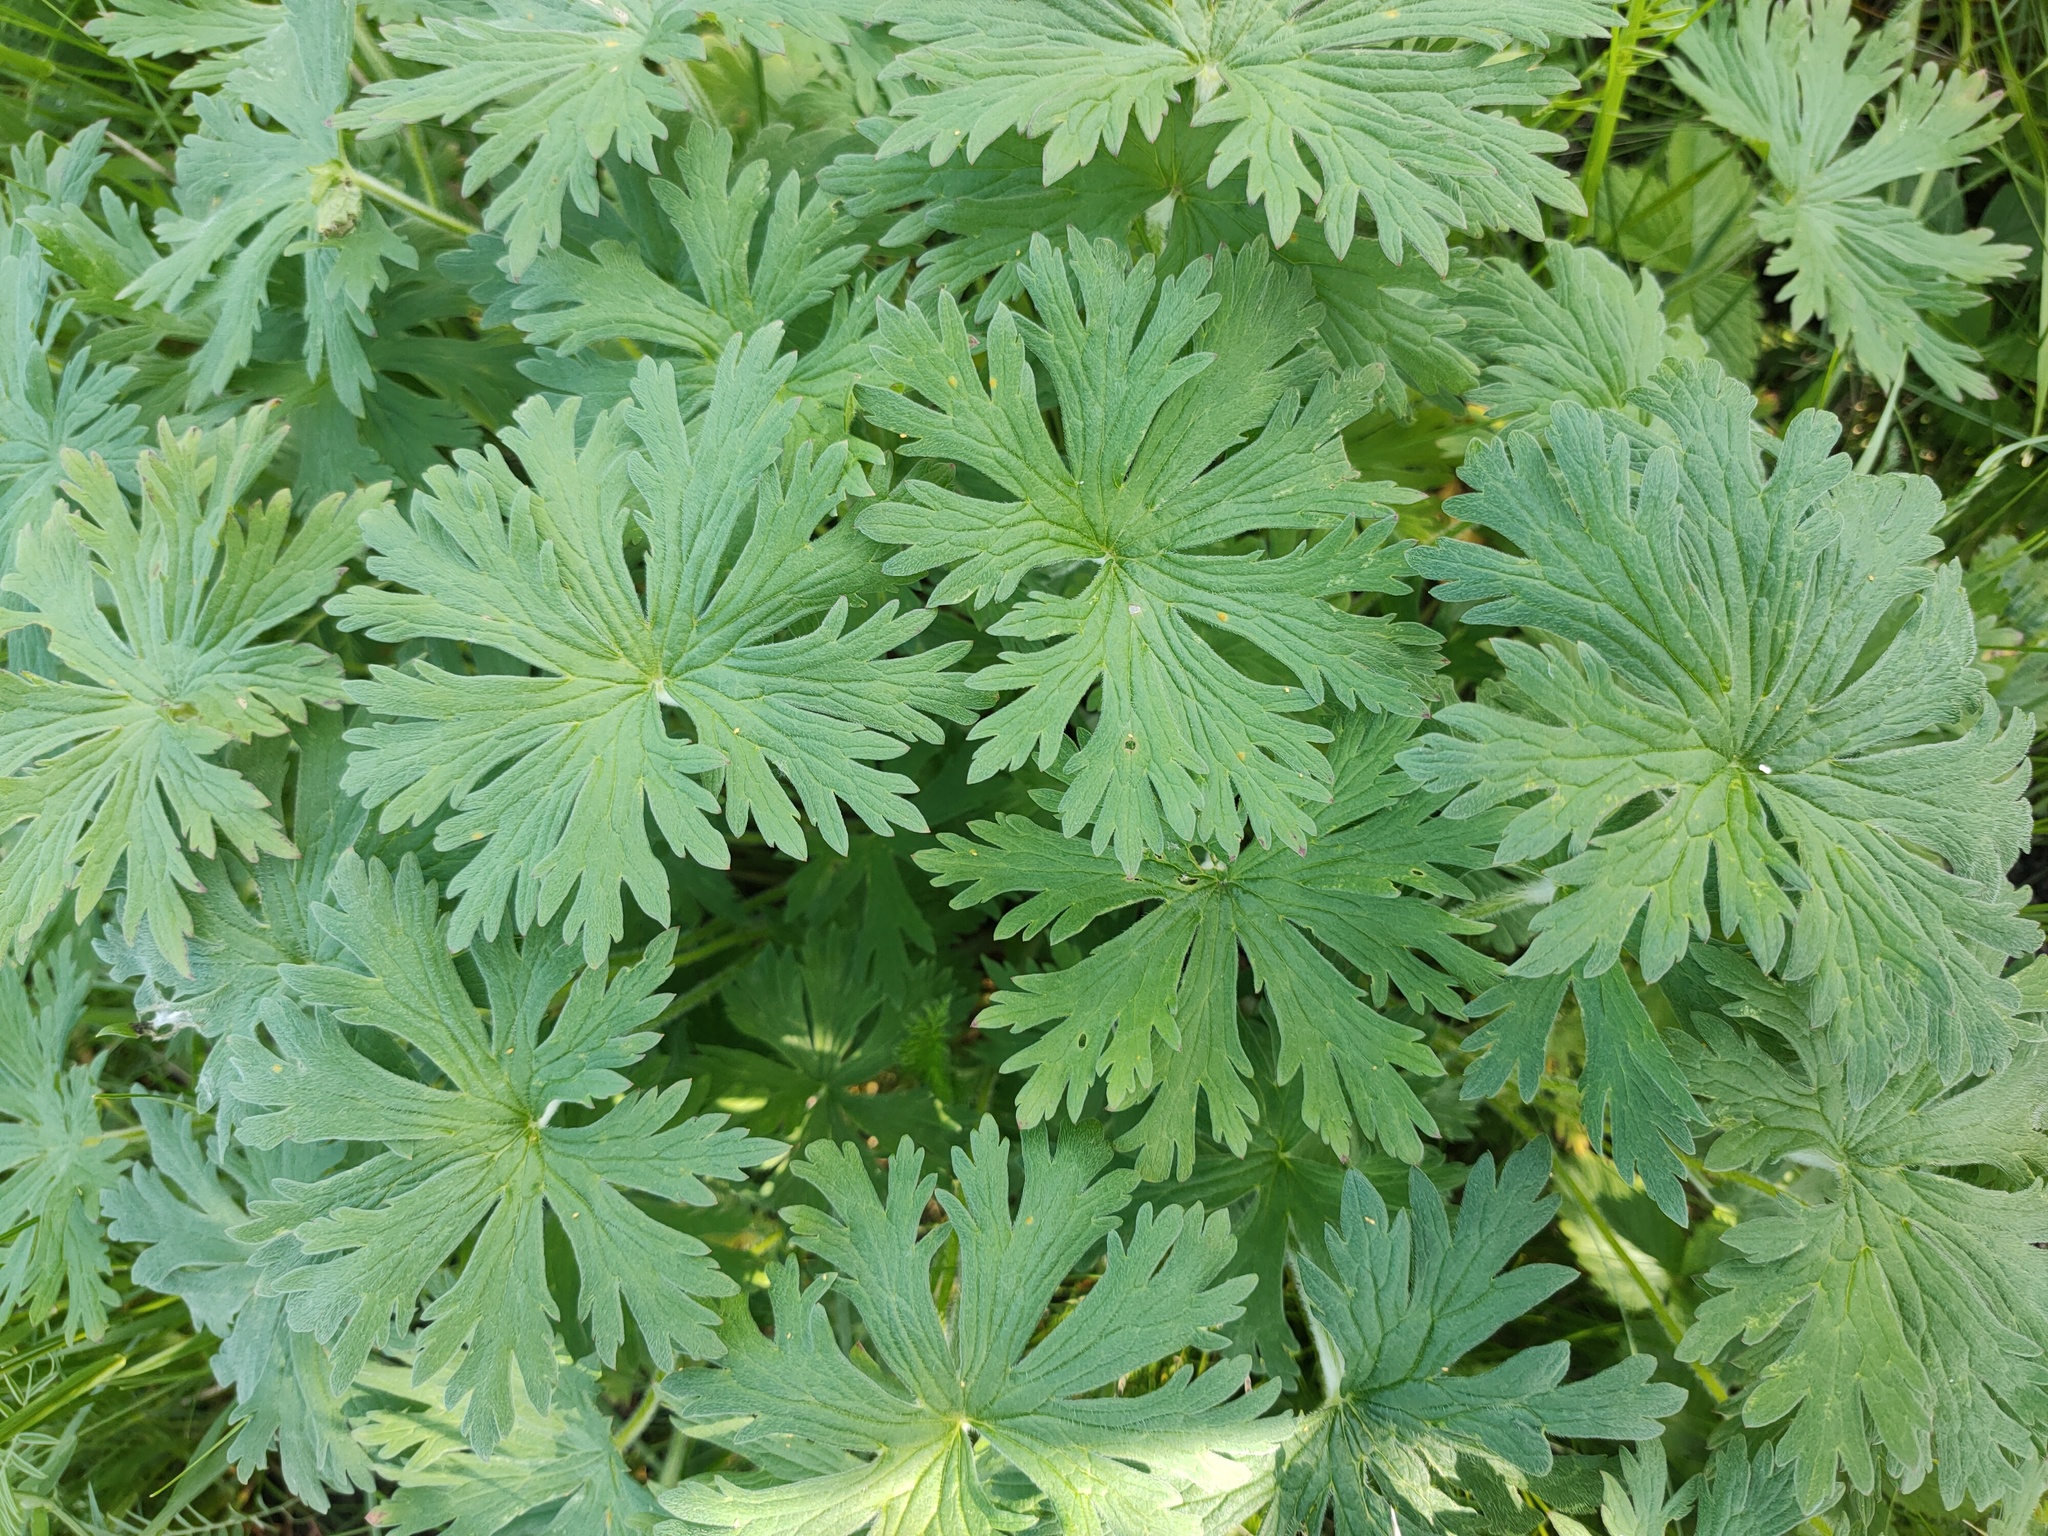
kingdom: Plantae
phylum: Tracheophyta
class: Magnoliopsida
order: Geraniales
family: Geraniaceae
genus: Geranium
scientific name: Geranium pratense
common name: Meadow crane's-bill
